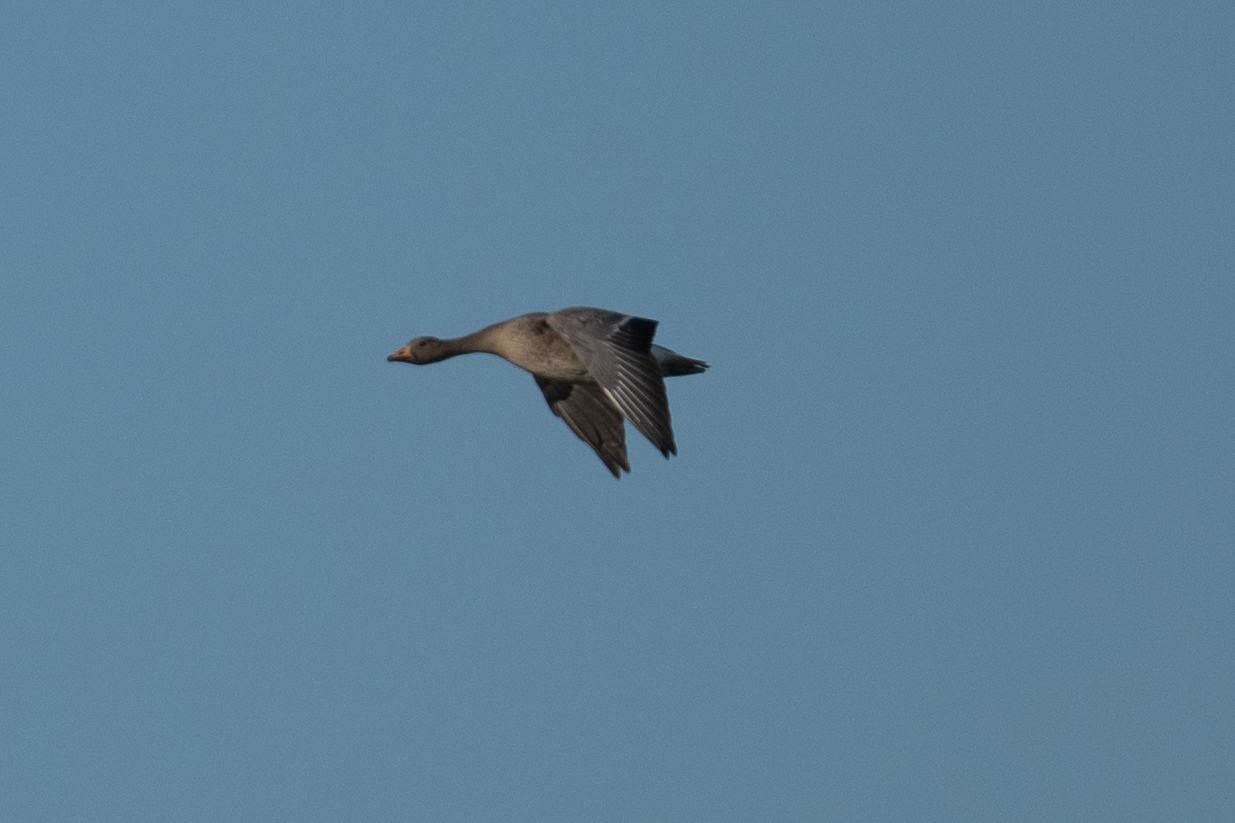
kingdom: Animalia
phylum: Chordata
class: Aves
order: Anseriformes
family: Anatidae
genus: Anser
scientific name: Anser albifrons
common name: Greater white-fronted goose
